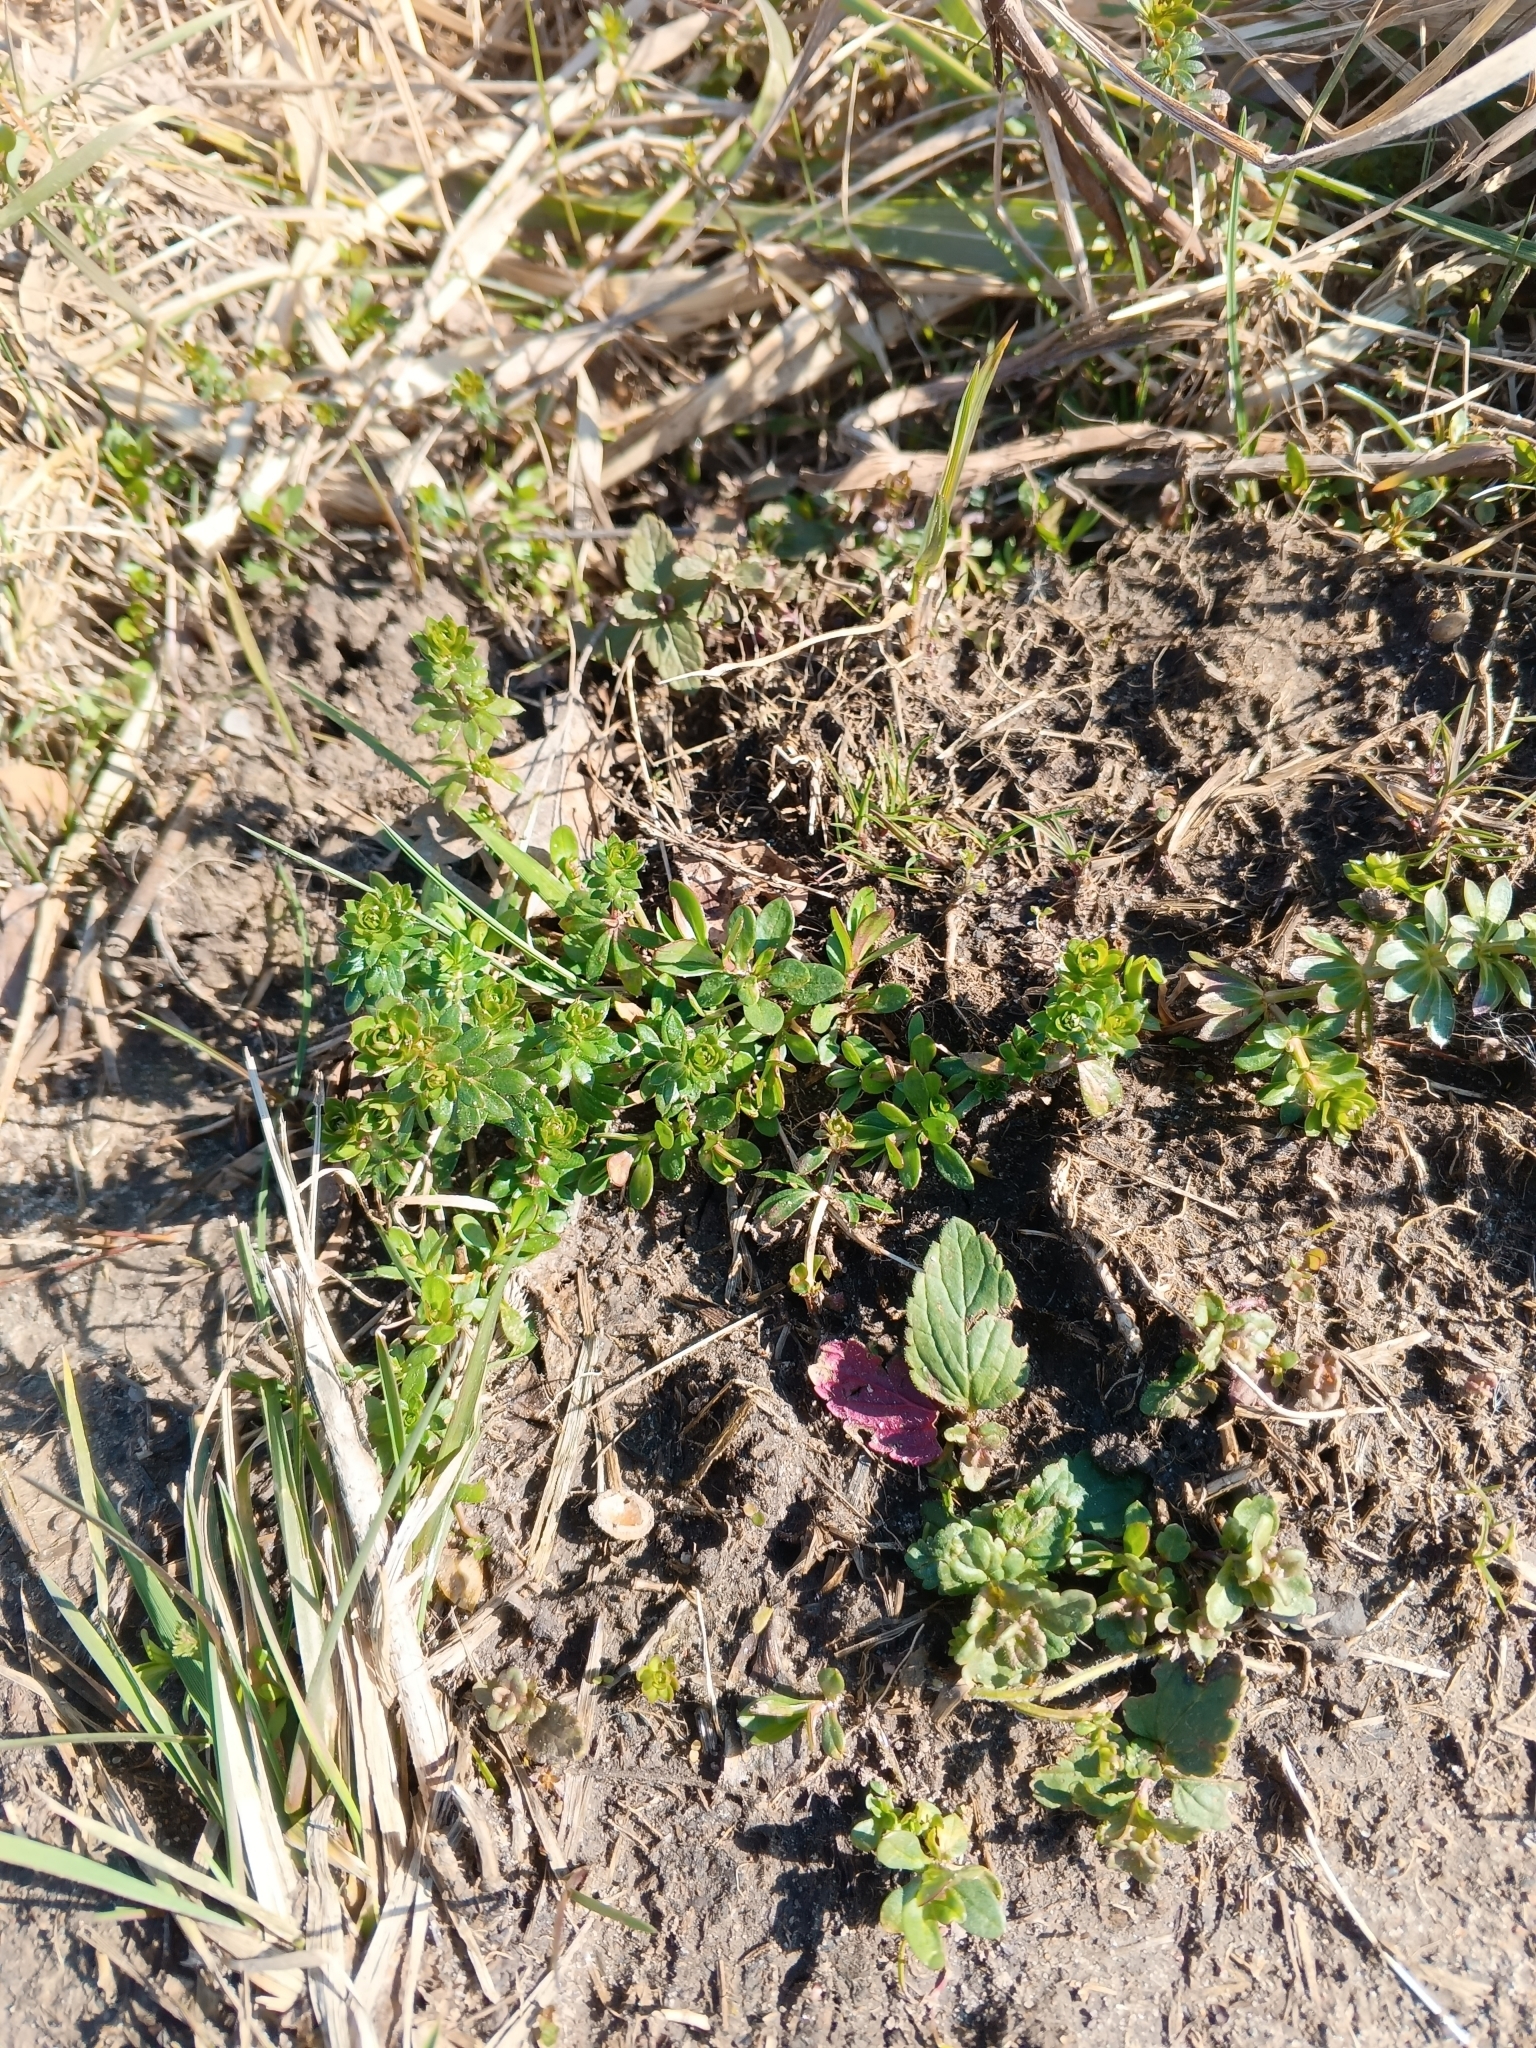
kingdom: Plantae
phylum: Tracheophyta
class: Magnoliopsida
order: Gentianales
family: Rubiaceae
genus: Galium
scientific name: Galium mollugo
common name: Hedge bedstraw
